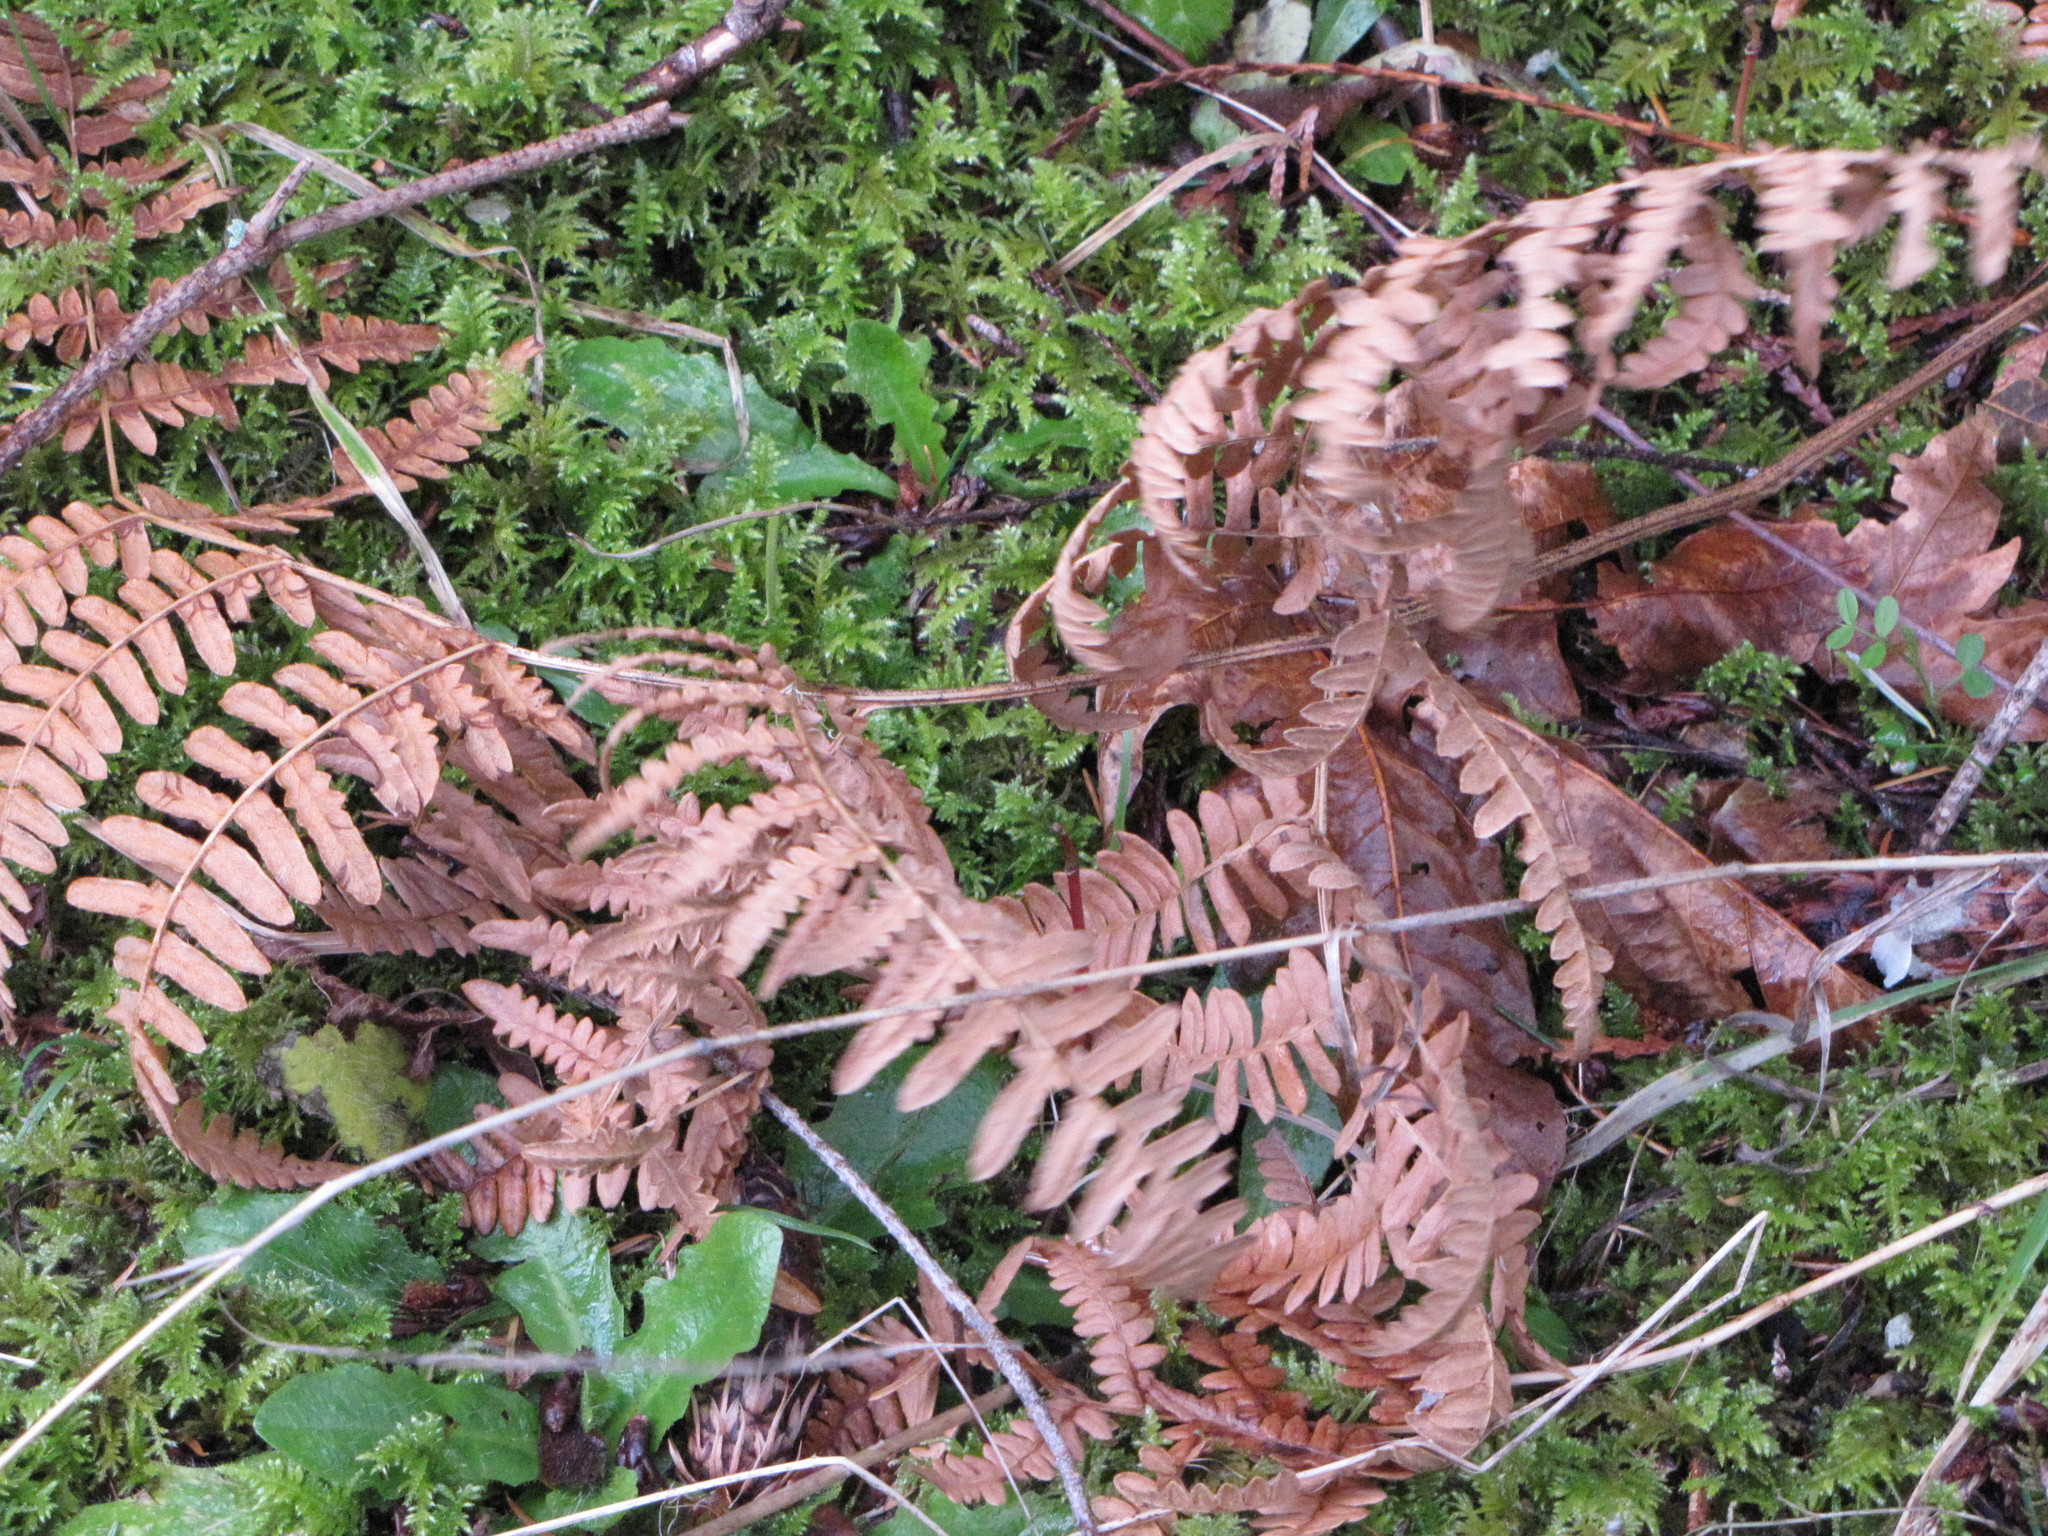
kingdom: Plantae
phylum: Tracheophyta
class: Polypodiopsida
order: Polypodiales
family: Dennstaedtiaceae
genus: Pteridium
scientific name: Pteridium aquilinum
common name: Bracken
